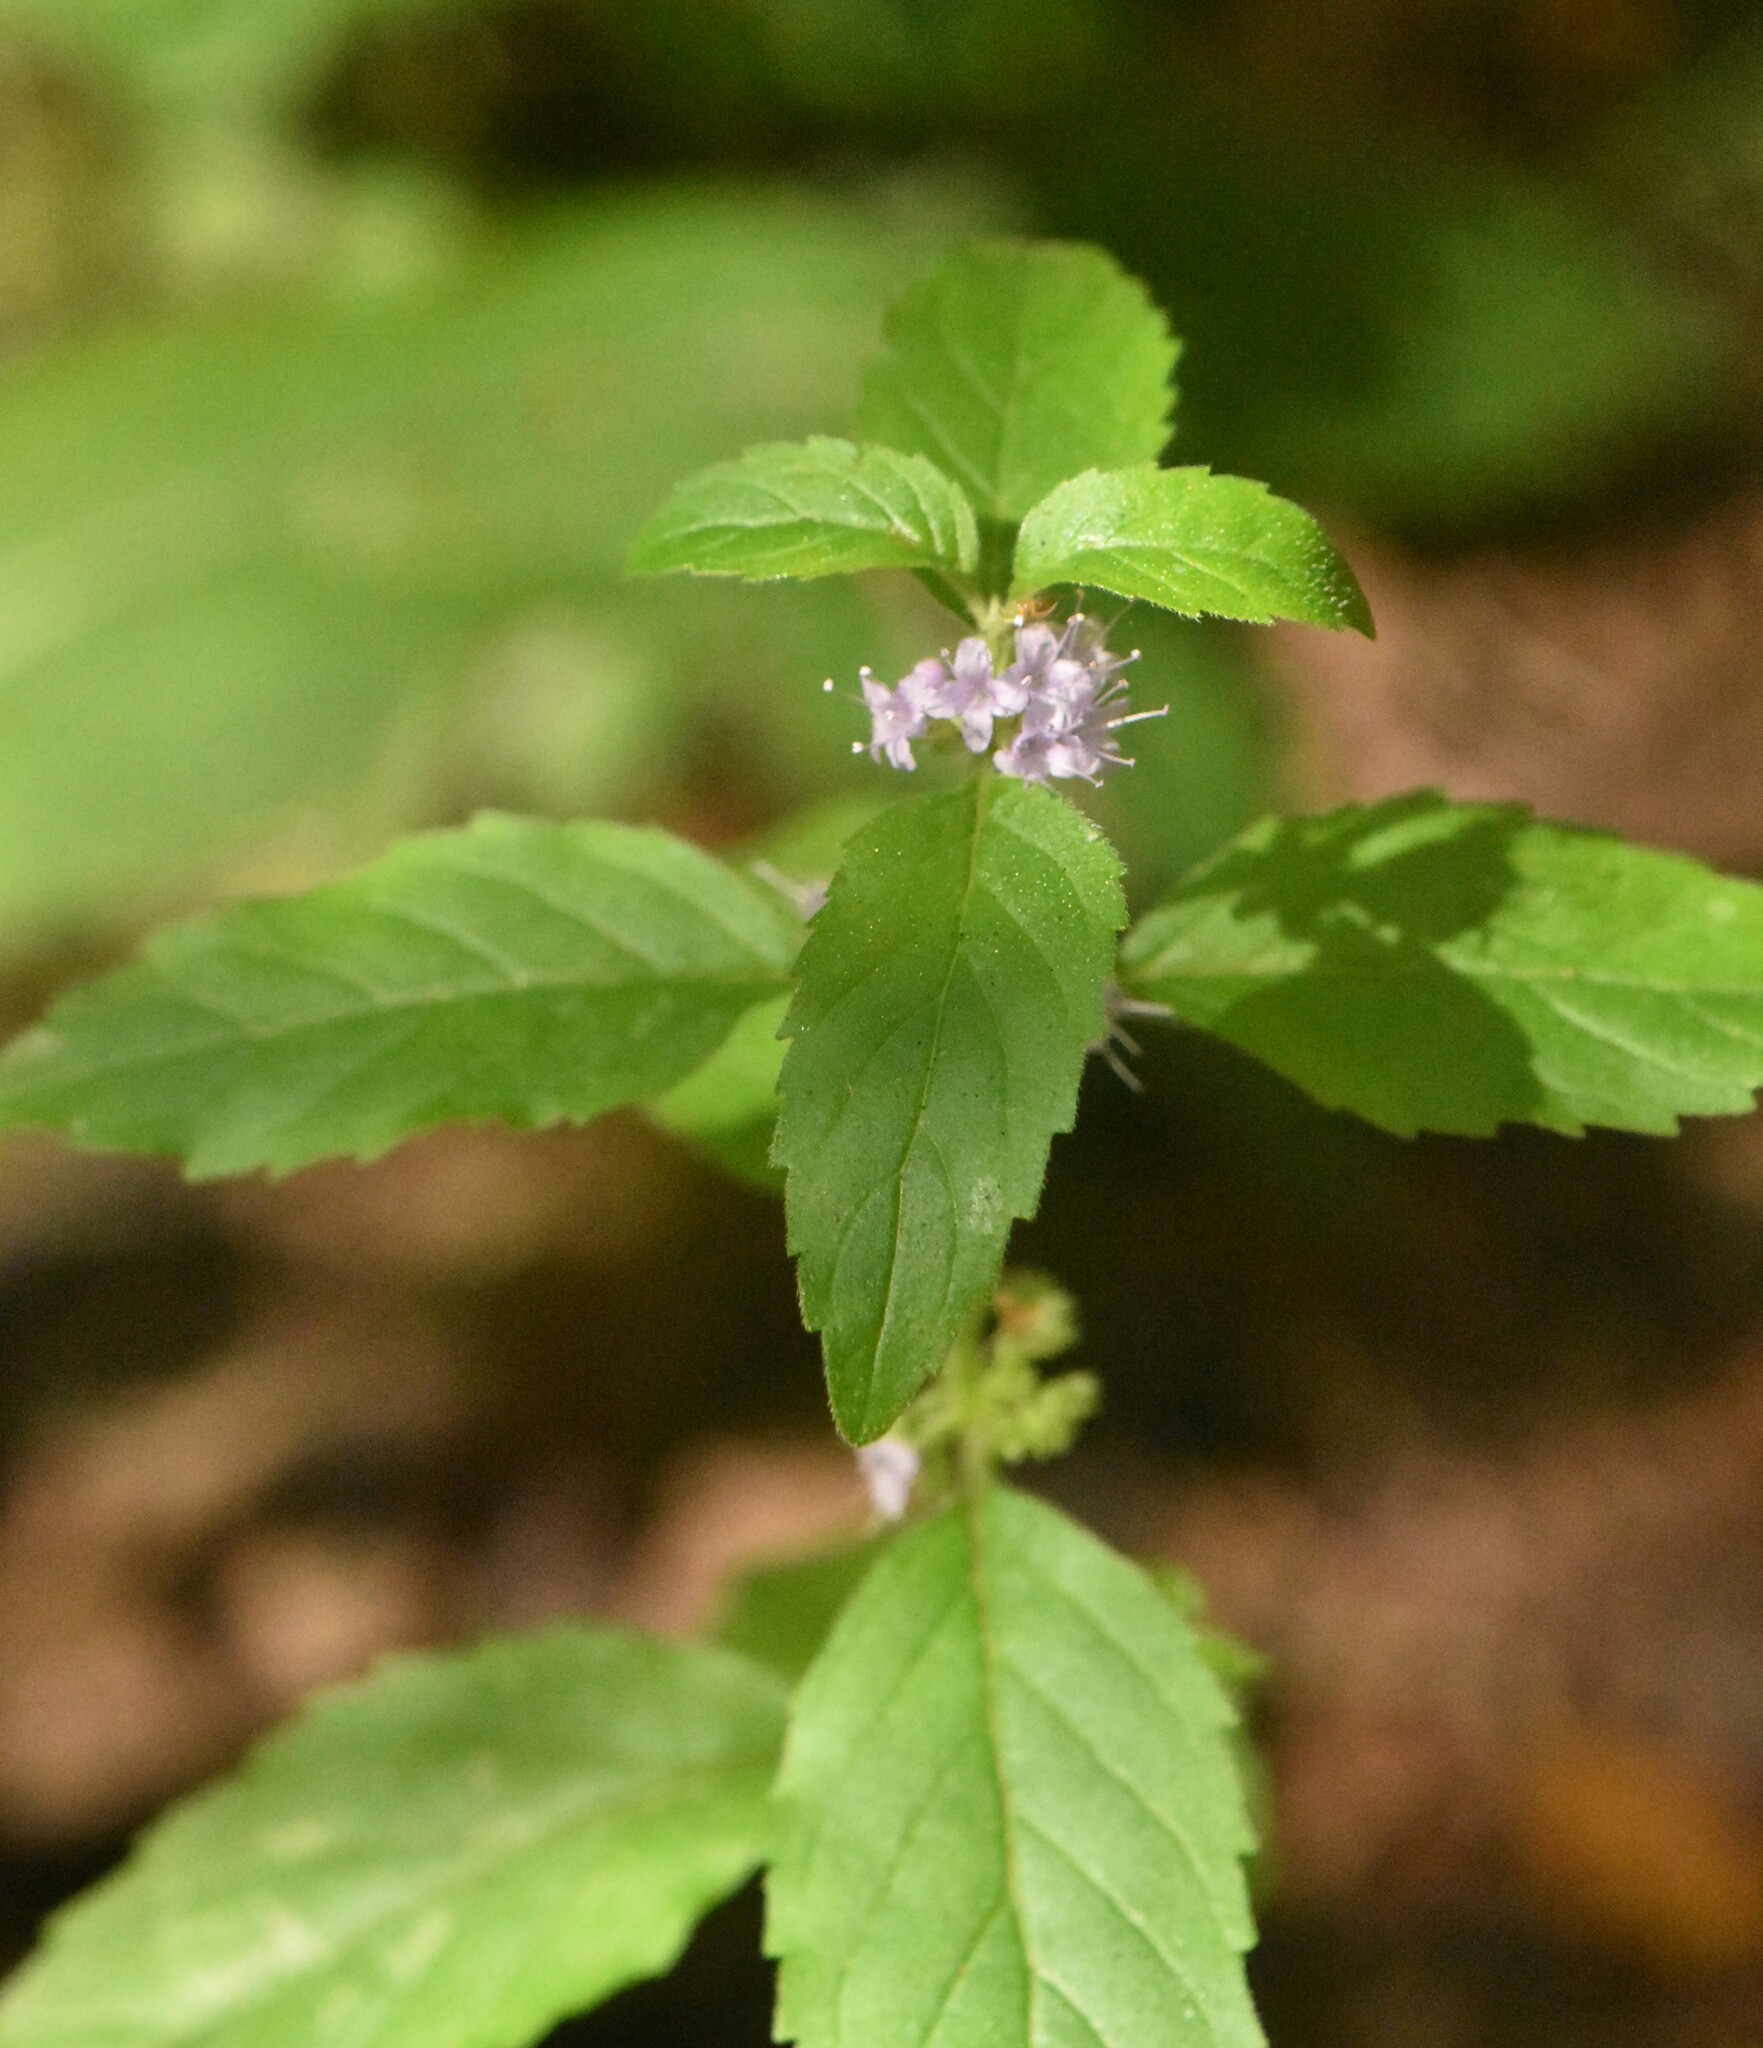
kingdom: Plantae
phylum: Tracheophyta
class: Magnoliopsida
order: Lamiales
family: Lamiaceae
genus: Mentha
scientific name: Mentha arvensis
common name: Corn mint
